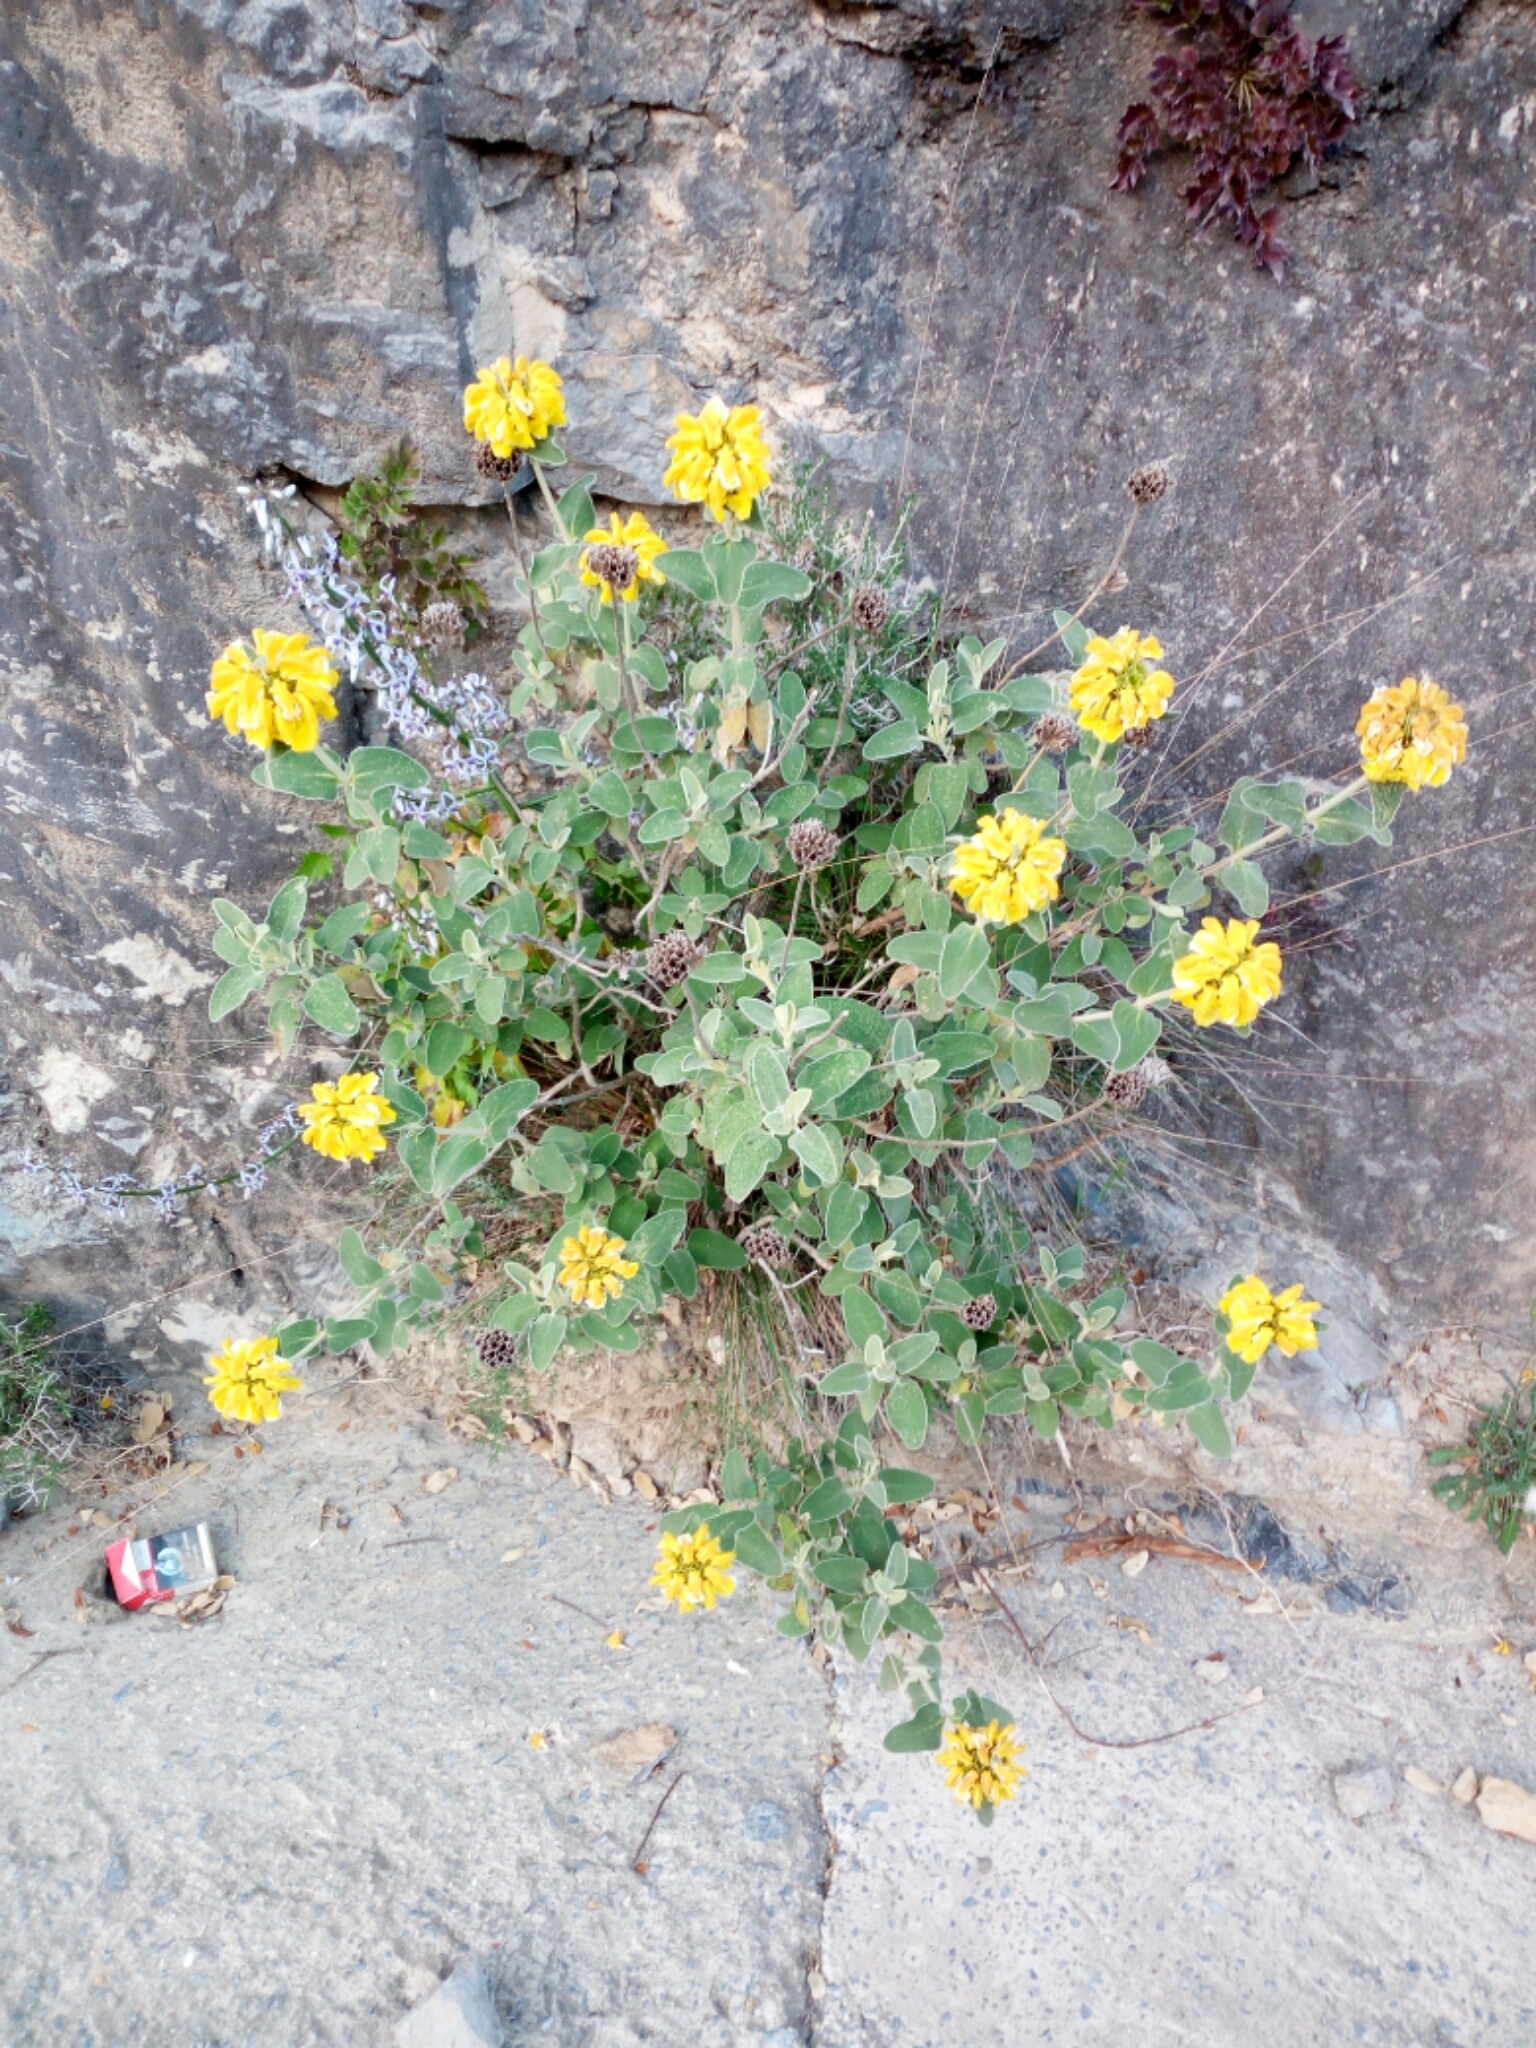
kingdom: Plantae
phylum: Tracheophyta
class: Magnoliopsida
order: Lamiales
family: Lamiaceae
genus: Phlomis
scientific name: Phlomis fruticosa
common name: Jerusalem sage
